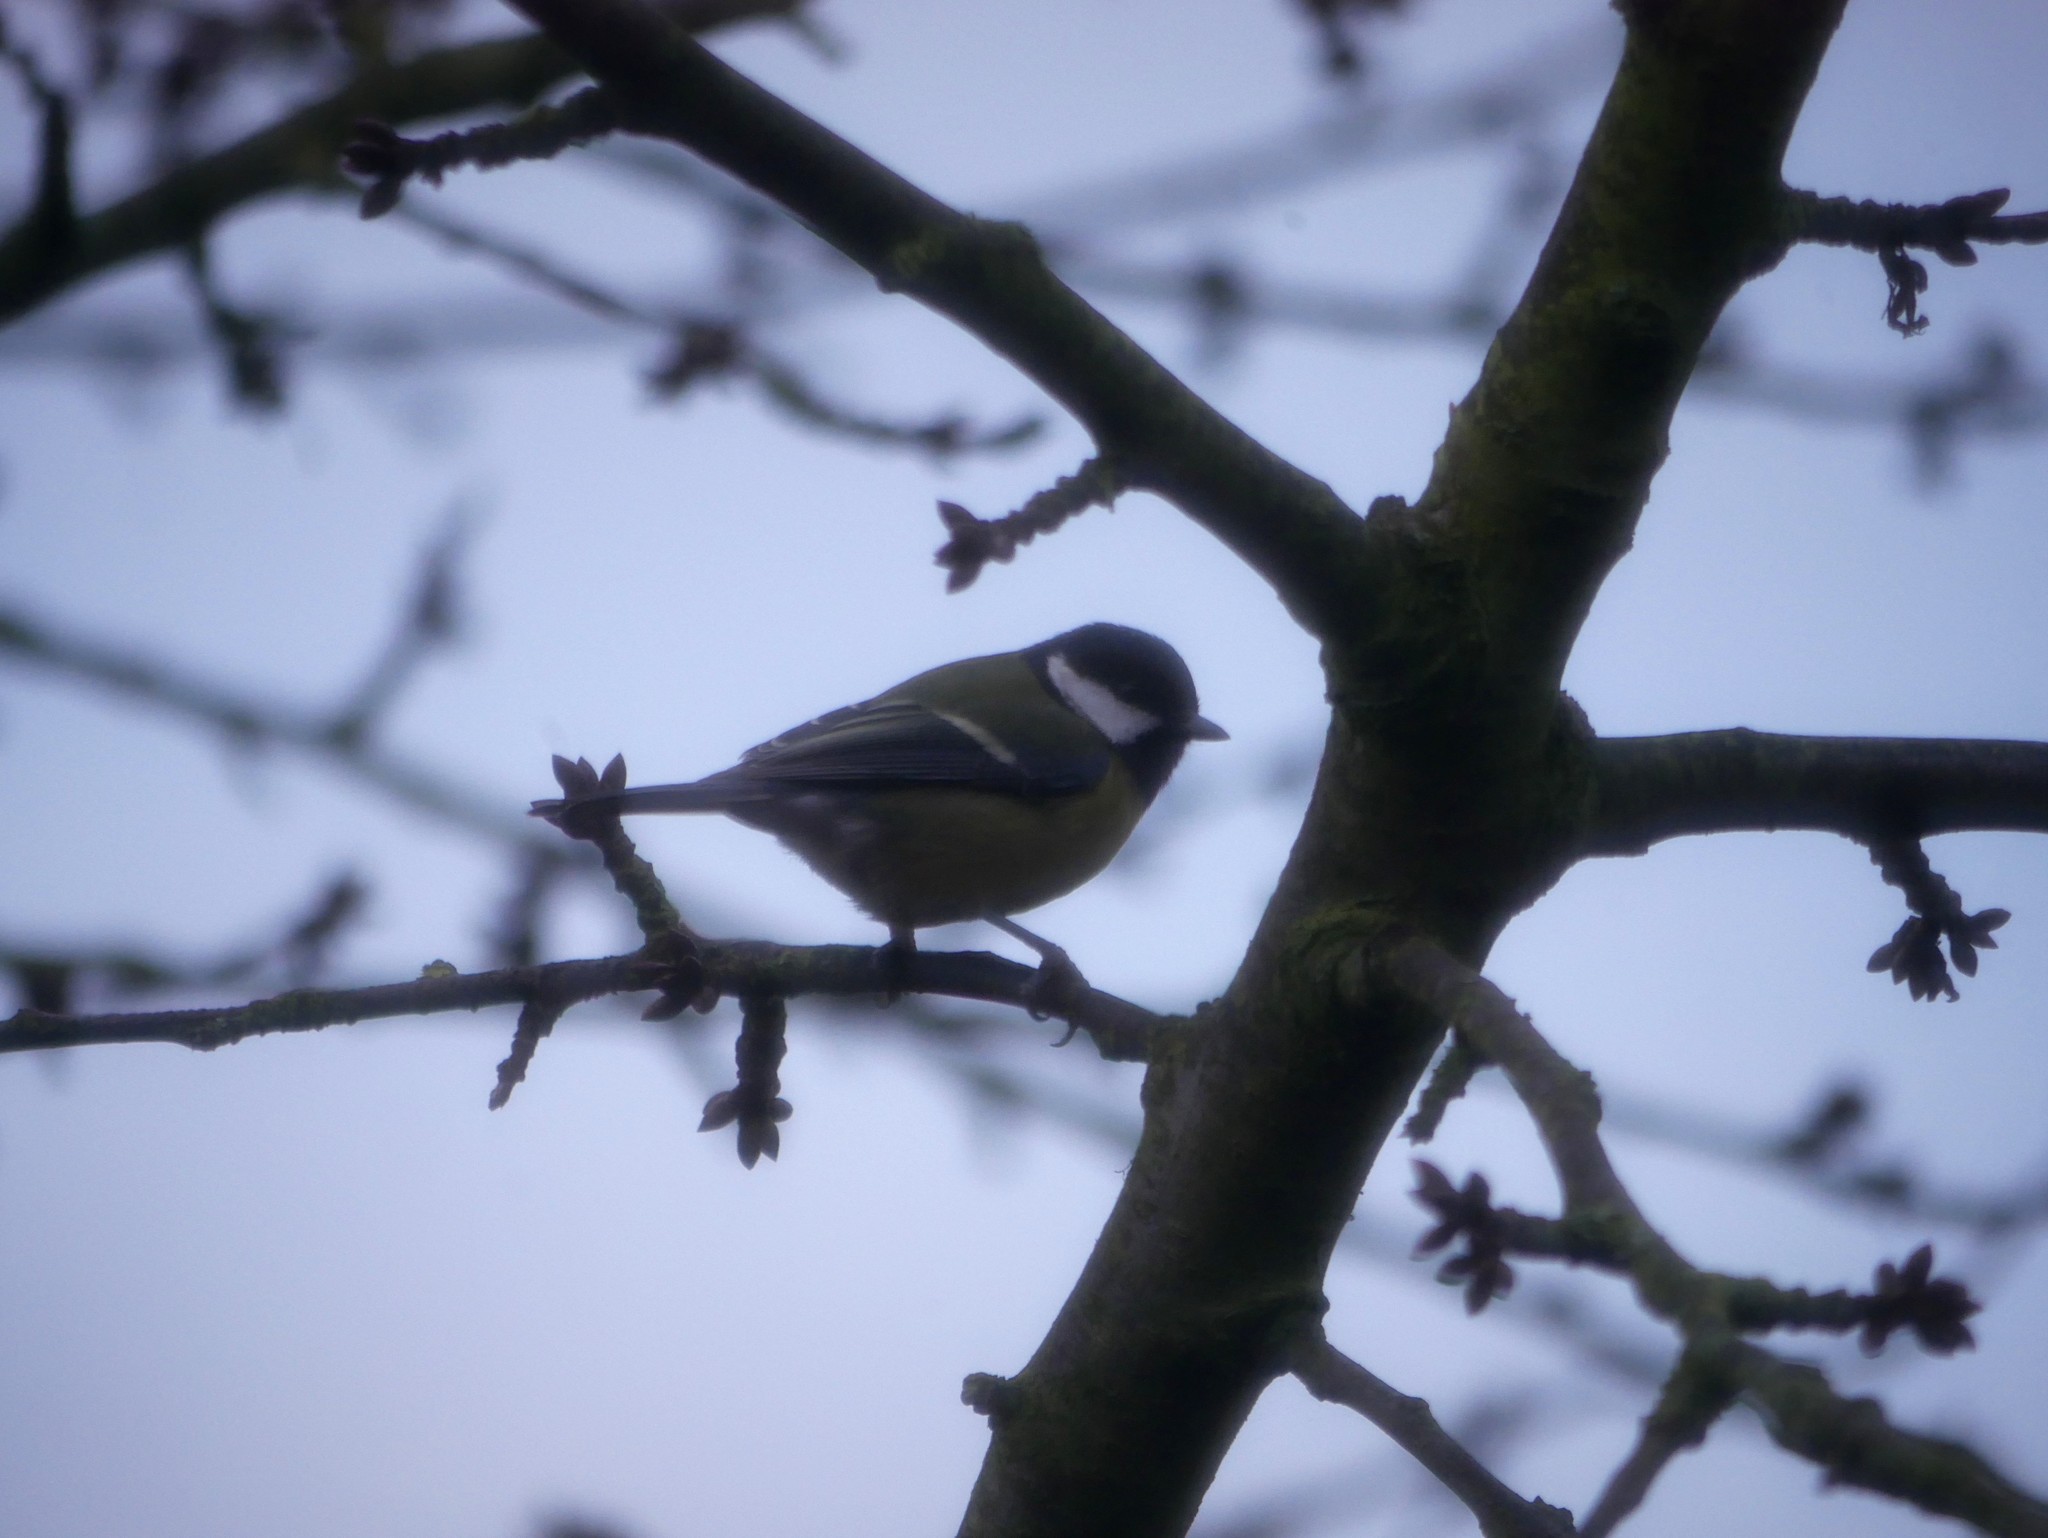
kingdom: Animalia
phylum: Chordata
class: Aves
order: Passeriformes
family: Paridae
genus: Parus
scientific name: Parus major
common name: Great tit
